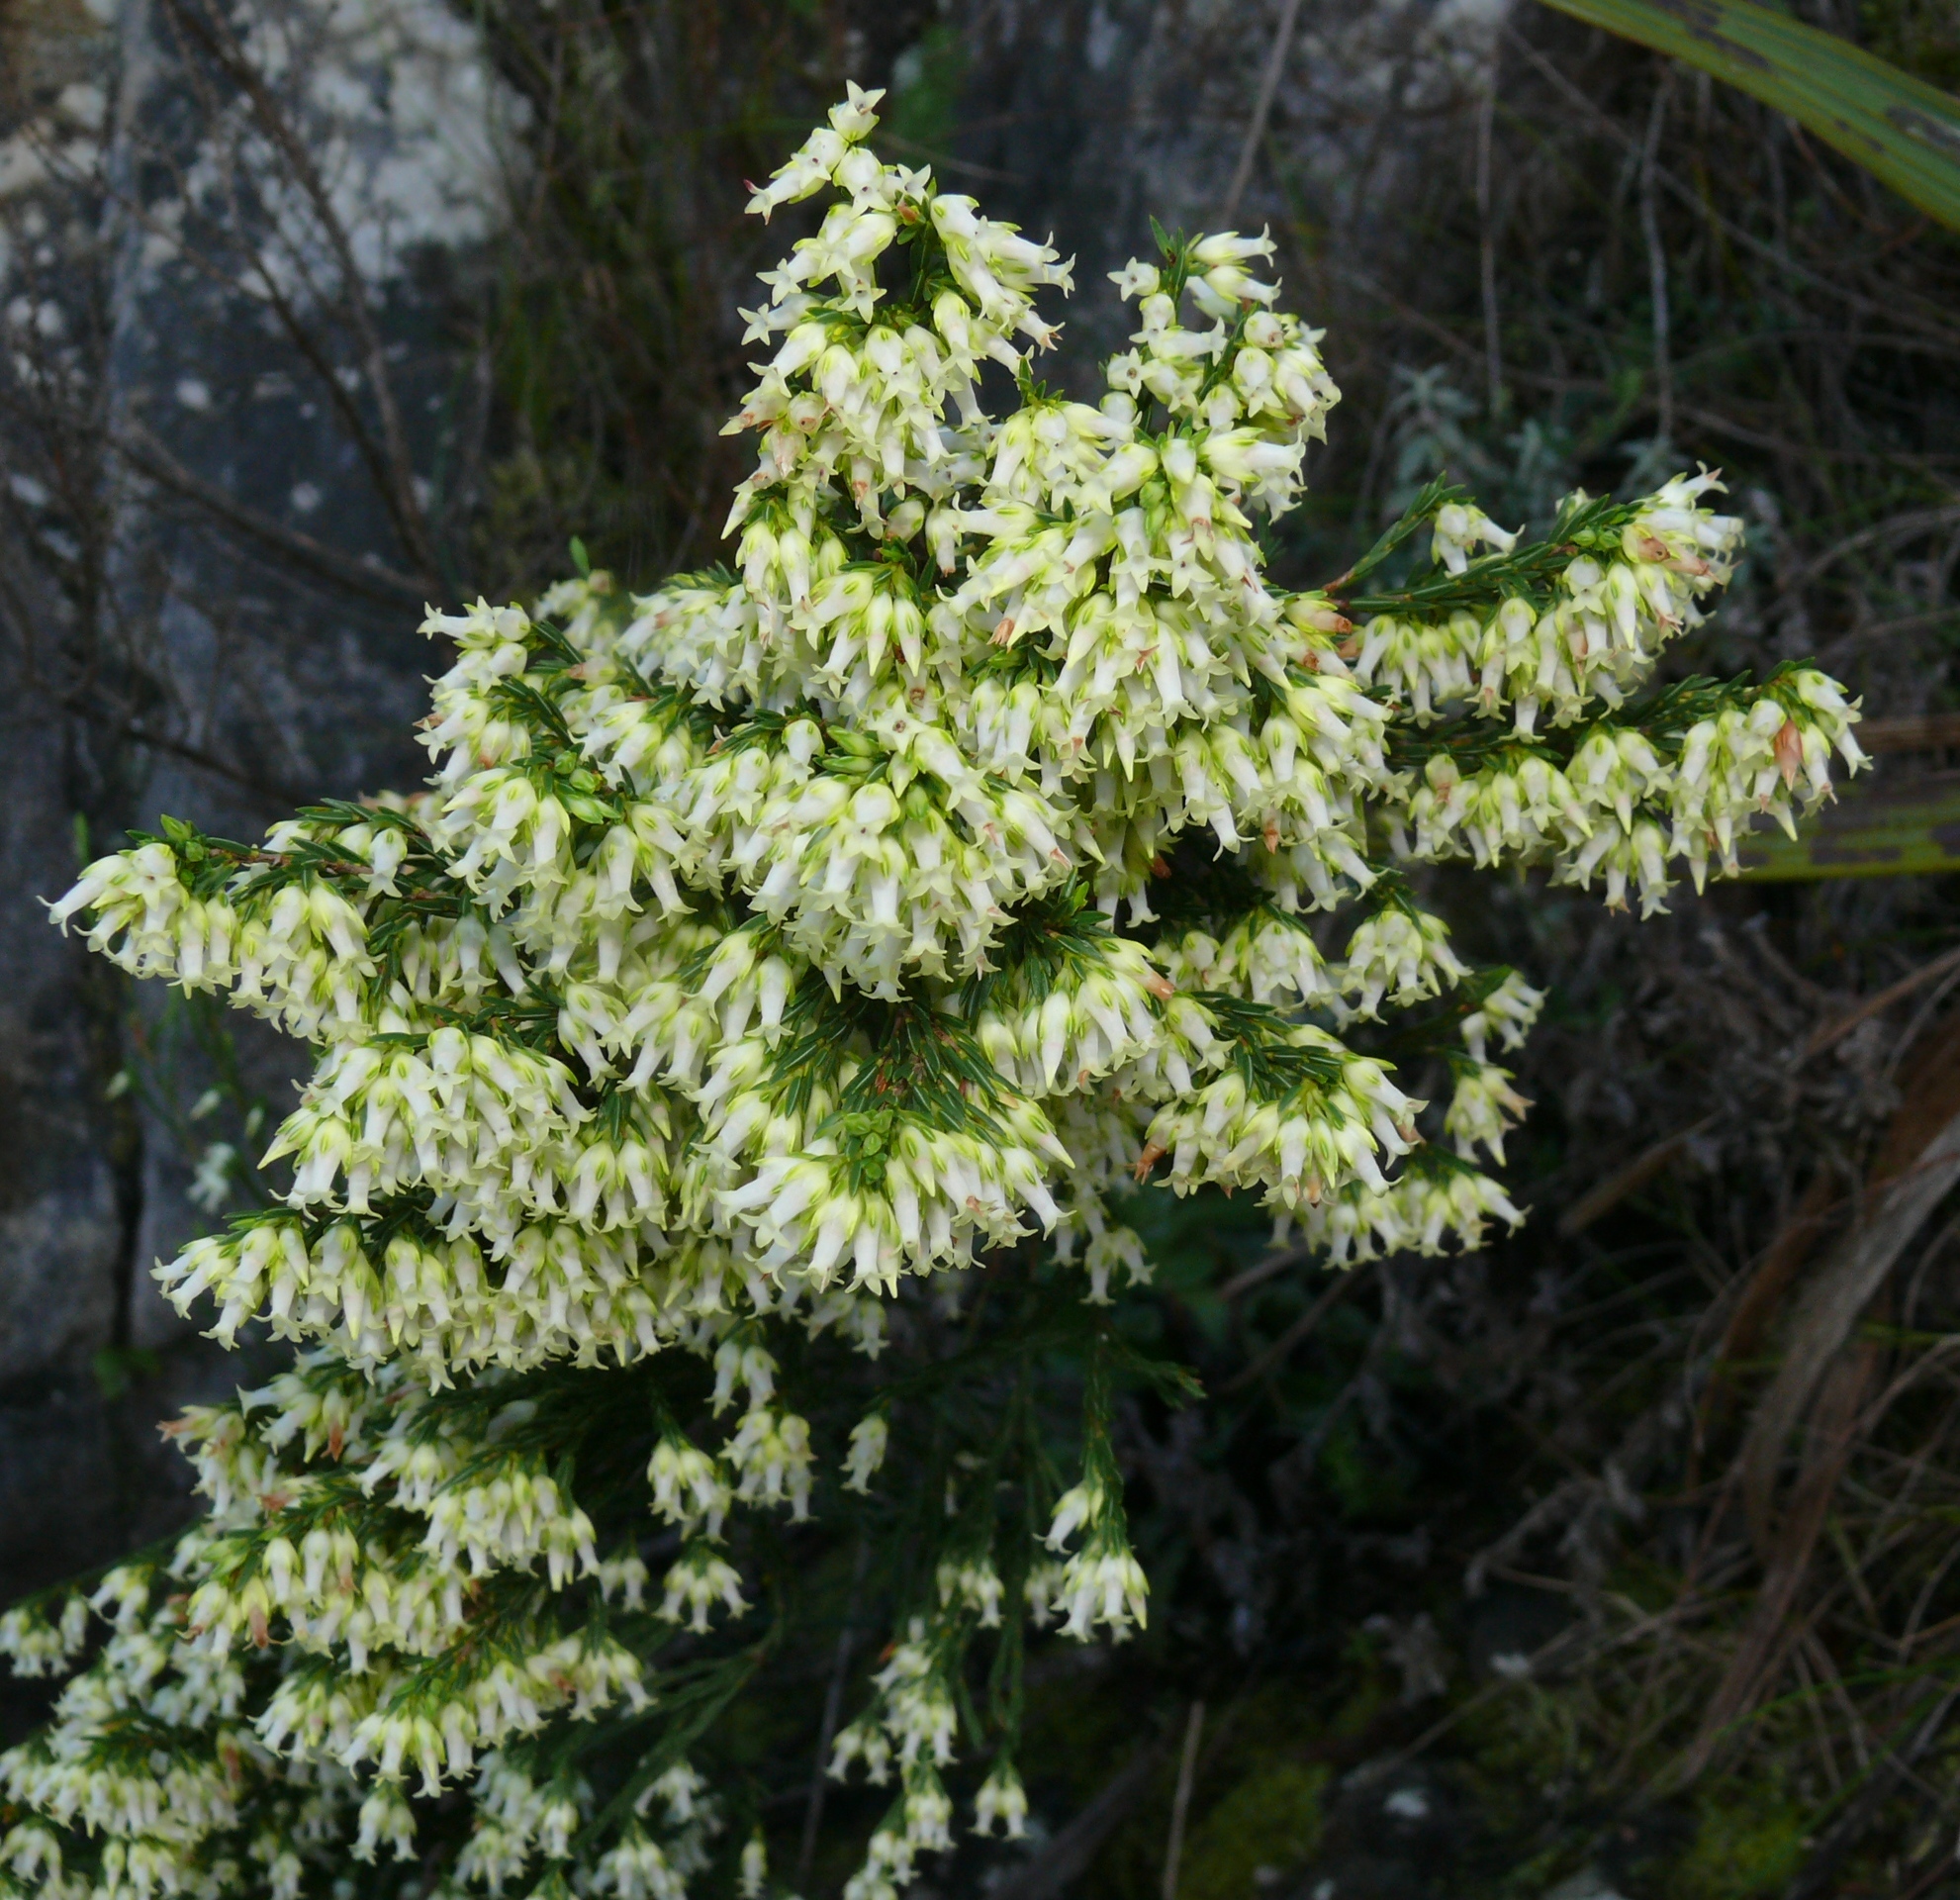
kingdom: Plantae
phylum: Tracheophyta
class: Magnoliopsida
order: Ericales
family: Ericaceae
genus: Erica
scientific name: Erica lutea
